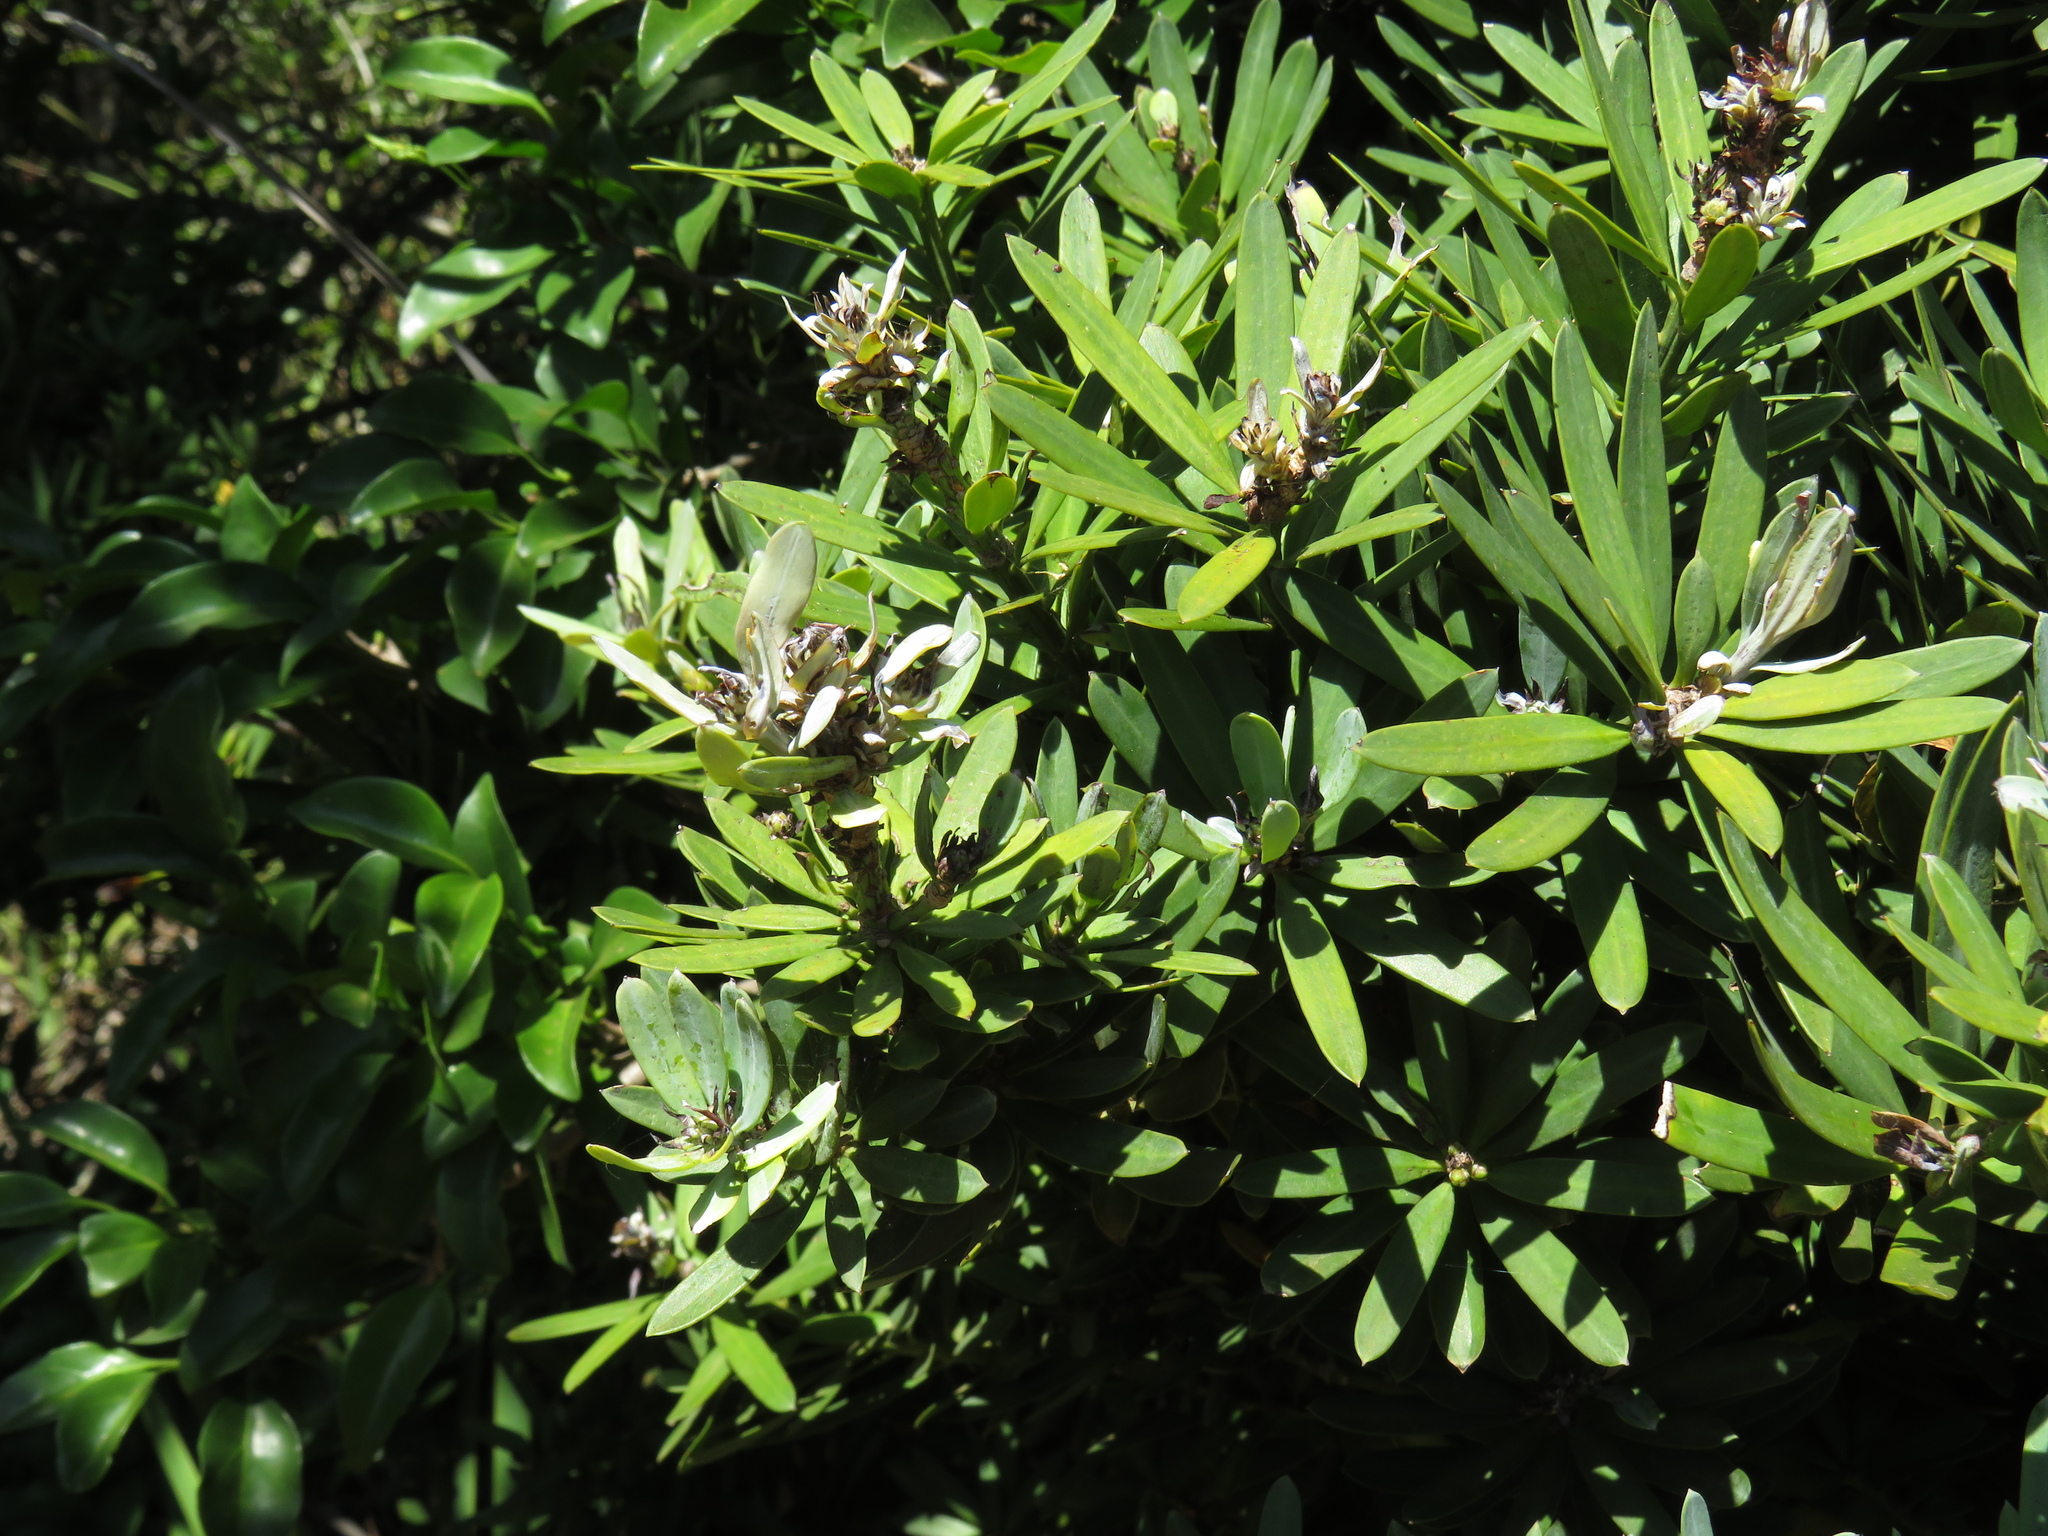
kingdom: Plantae
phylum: Tracheophyta
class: Pinopsida
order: Pinales
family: Podocarpaceae
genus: Podocarpus
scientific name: Podocarpus latifolius
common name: True yellowwood
